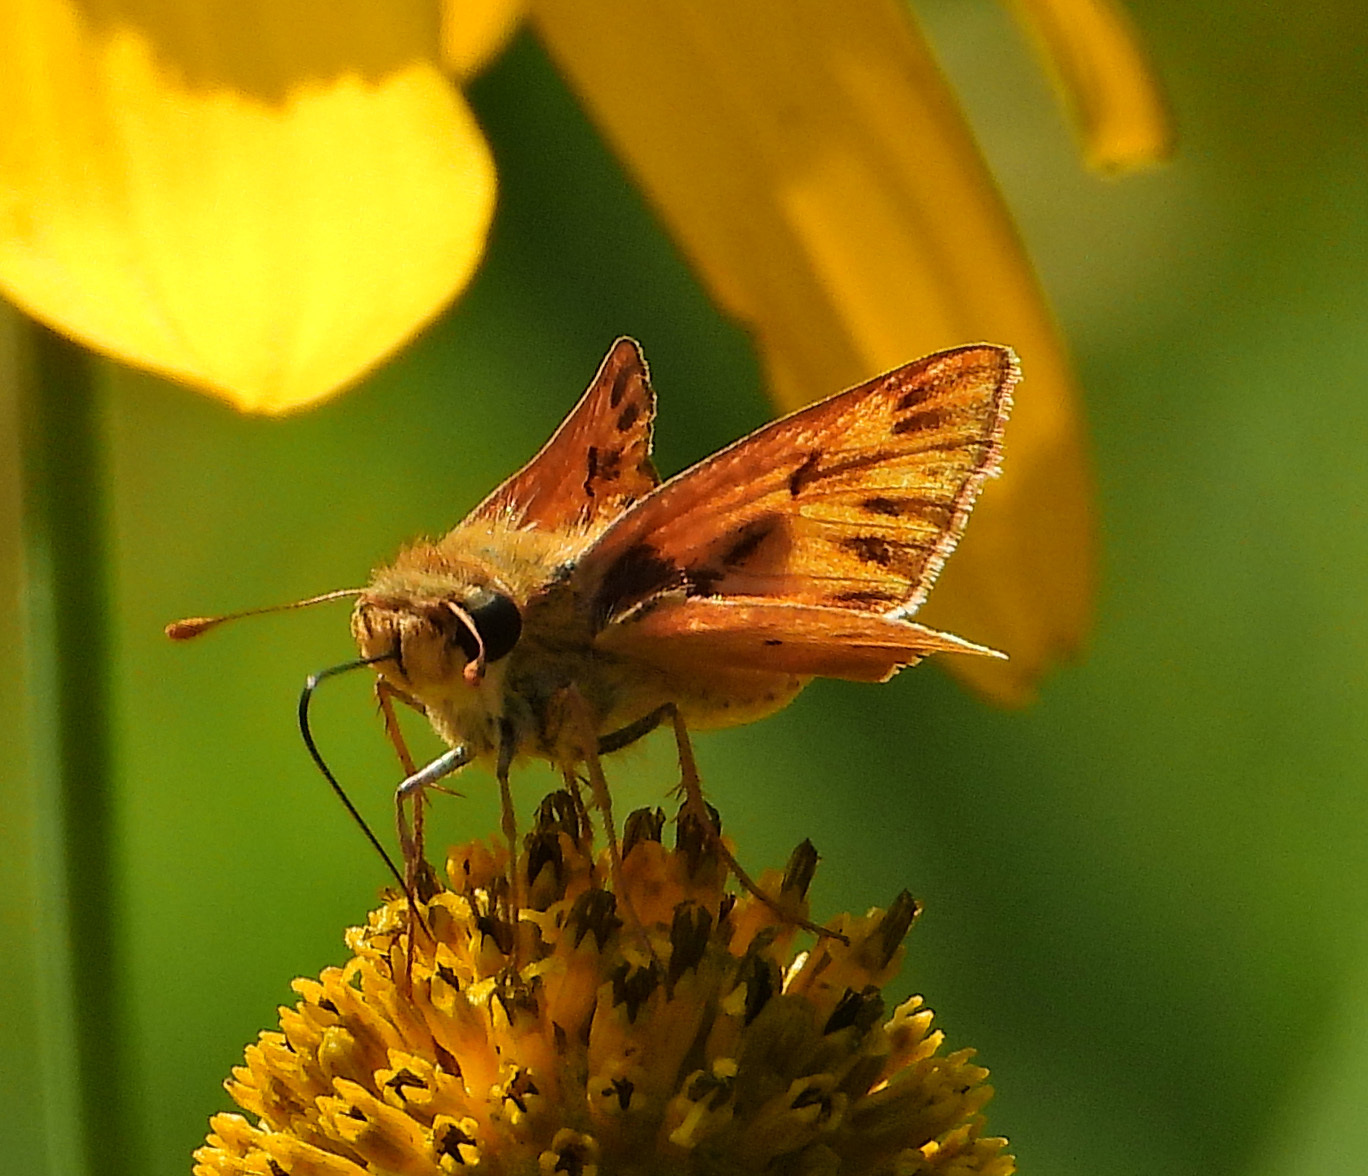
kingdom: Animalia
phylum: Arthropoda
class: Insecta
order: Lepidoptera
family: Hesperiidae
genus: Hylephila
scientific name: Hylephila phyleus
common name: Fiery skipper
